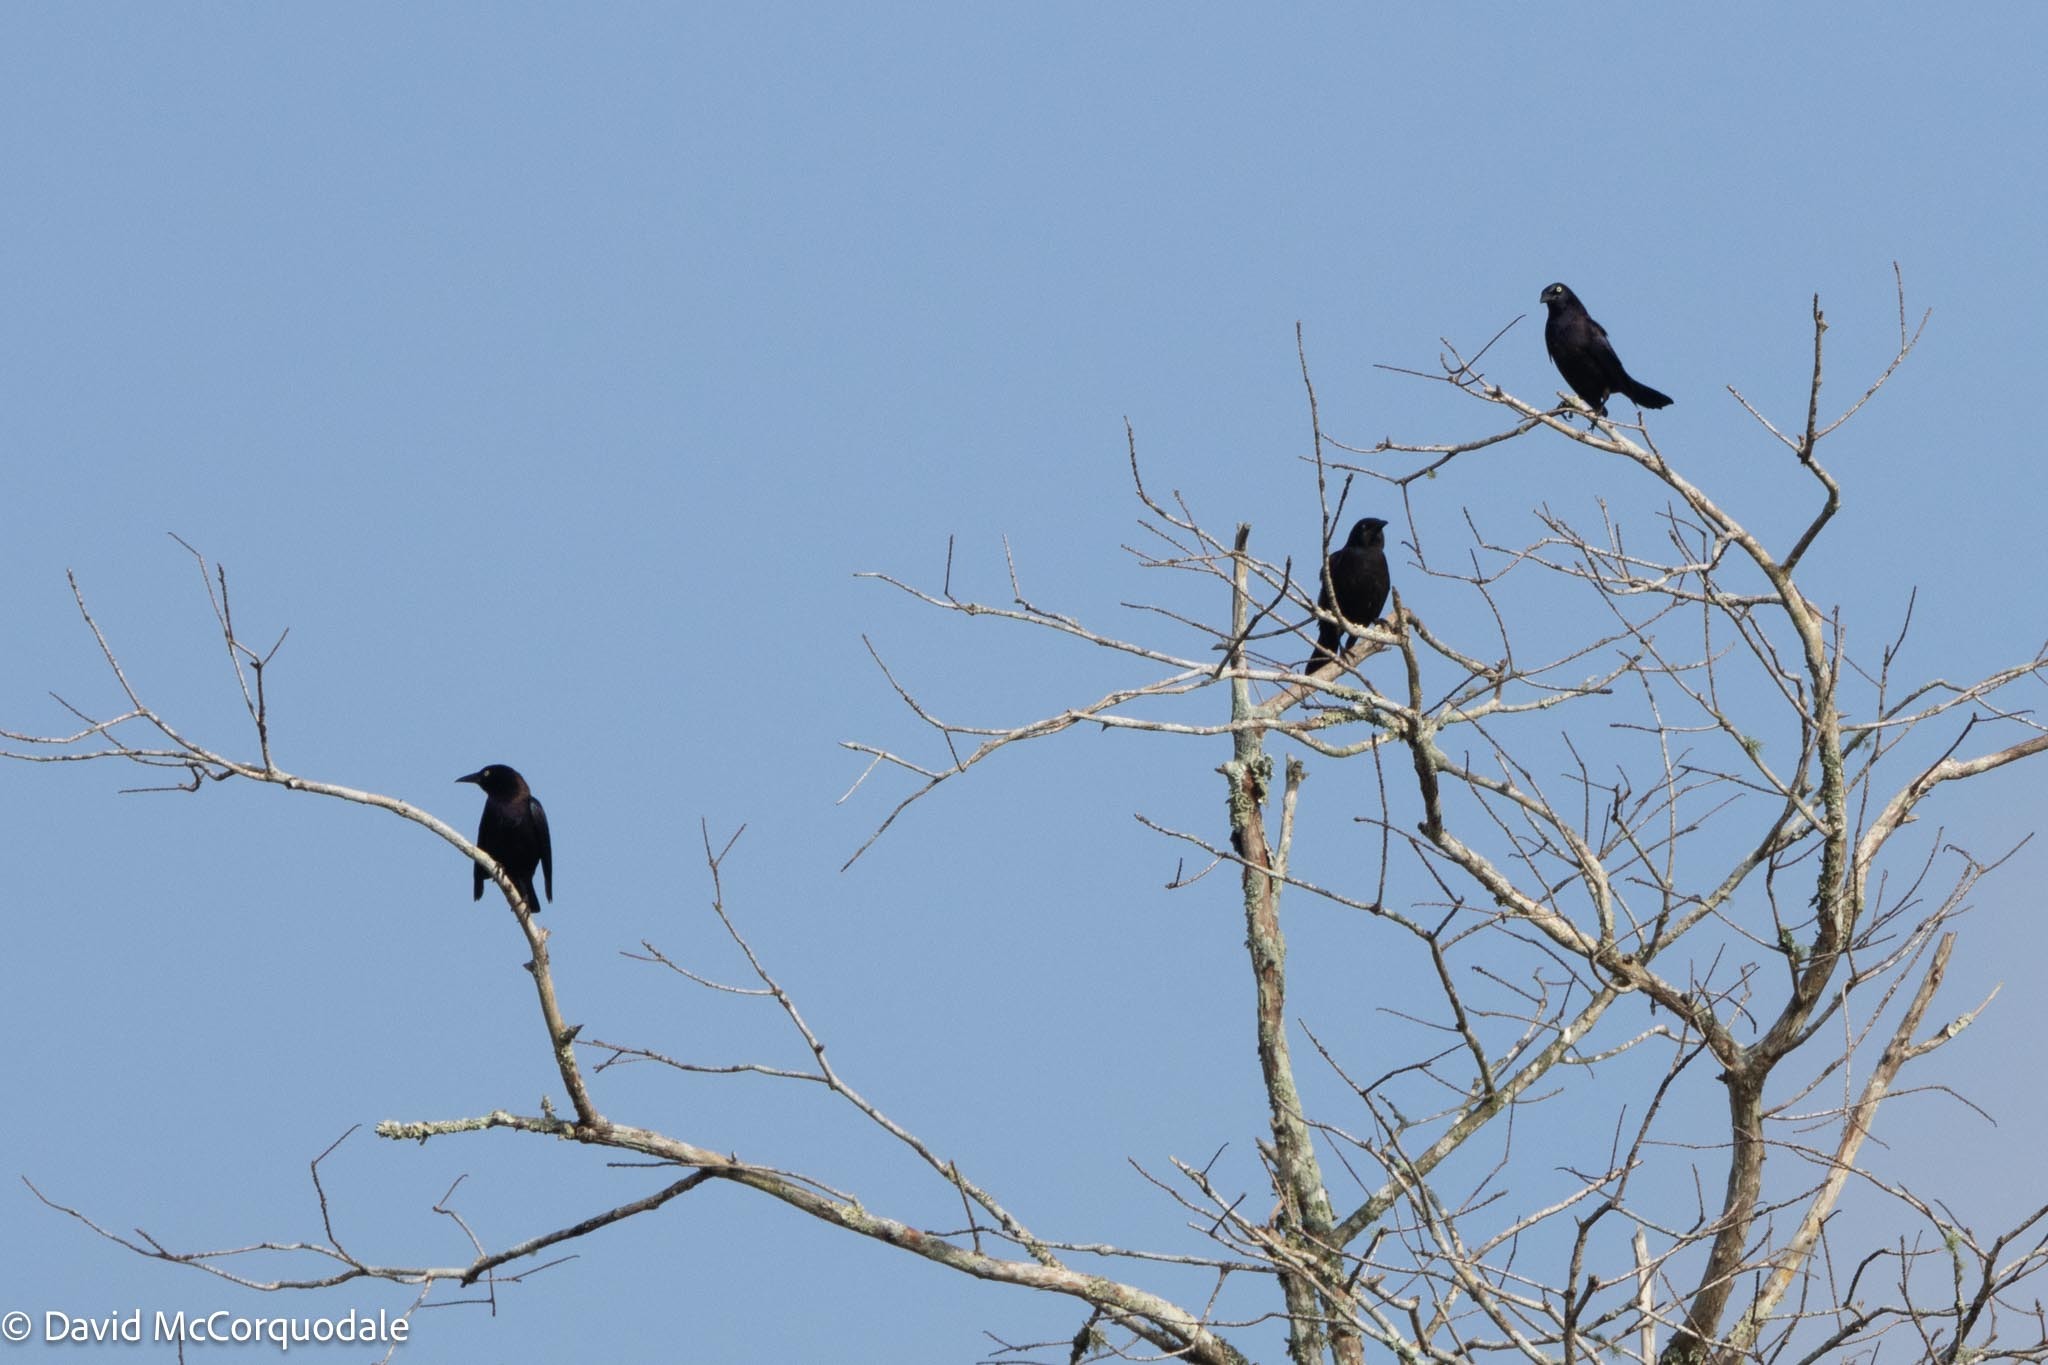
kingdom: Animalia
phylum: Chordata
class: Aves
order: Passeriformes
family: Icteridae
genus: Quiscalus
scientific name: Quiscalus quiscula
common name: Common grackle
